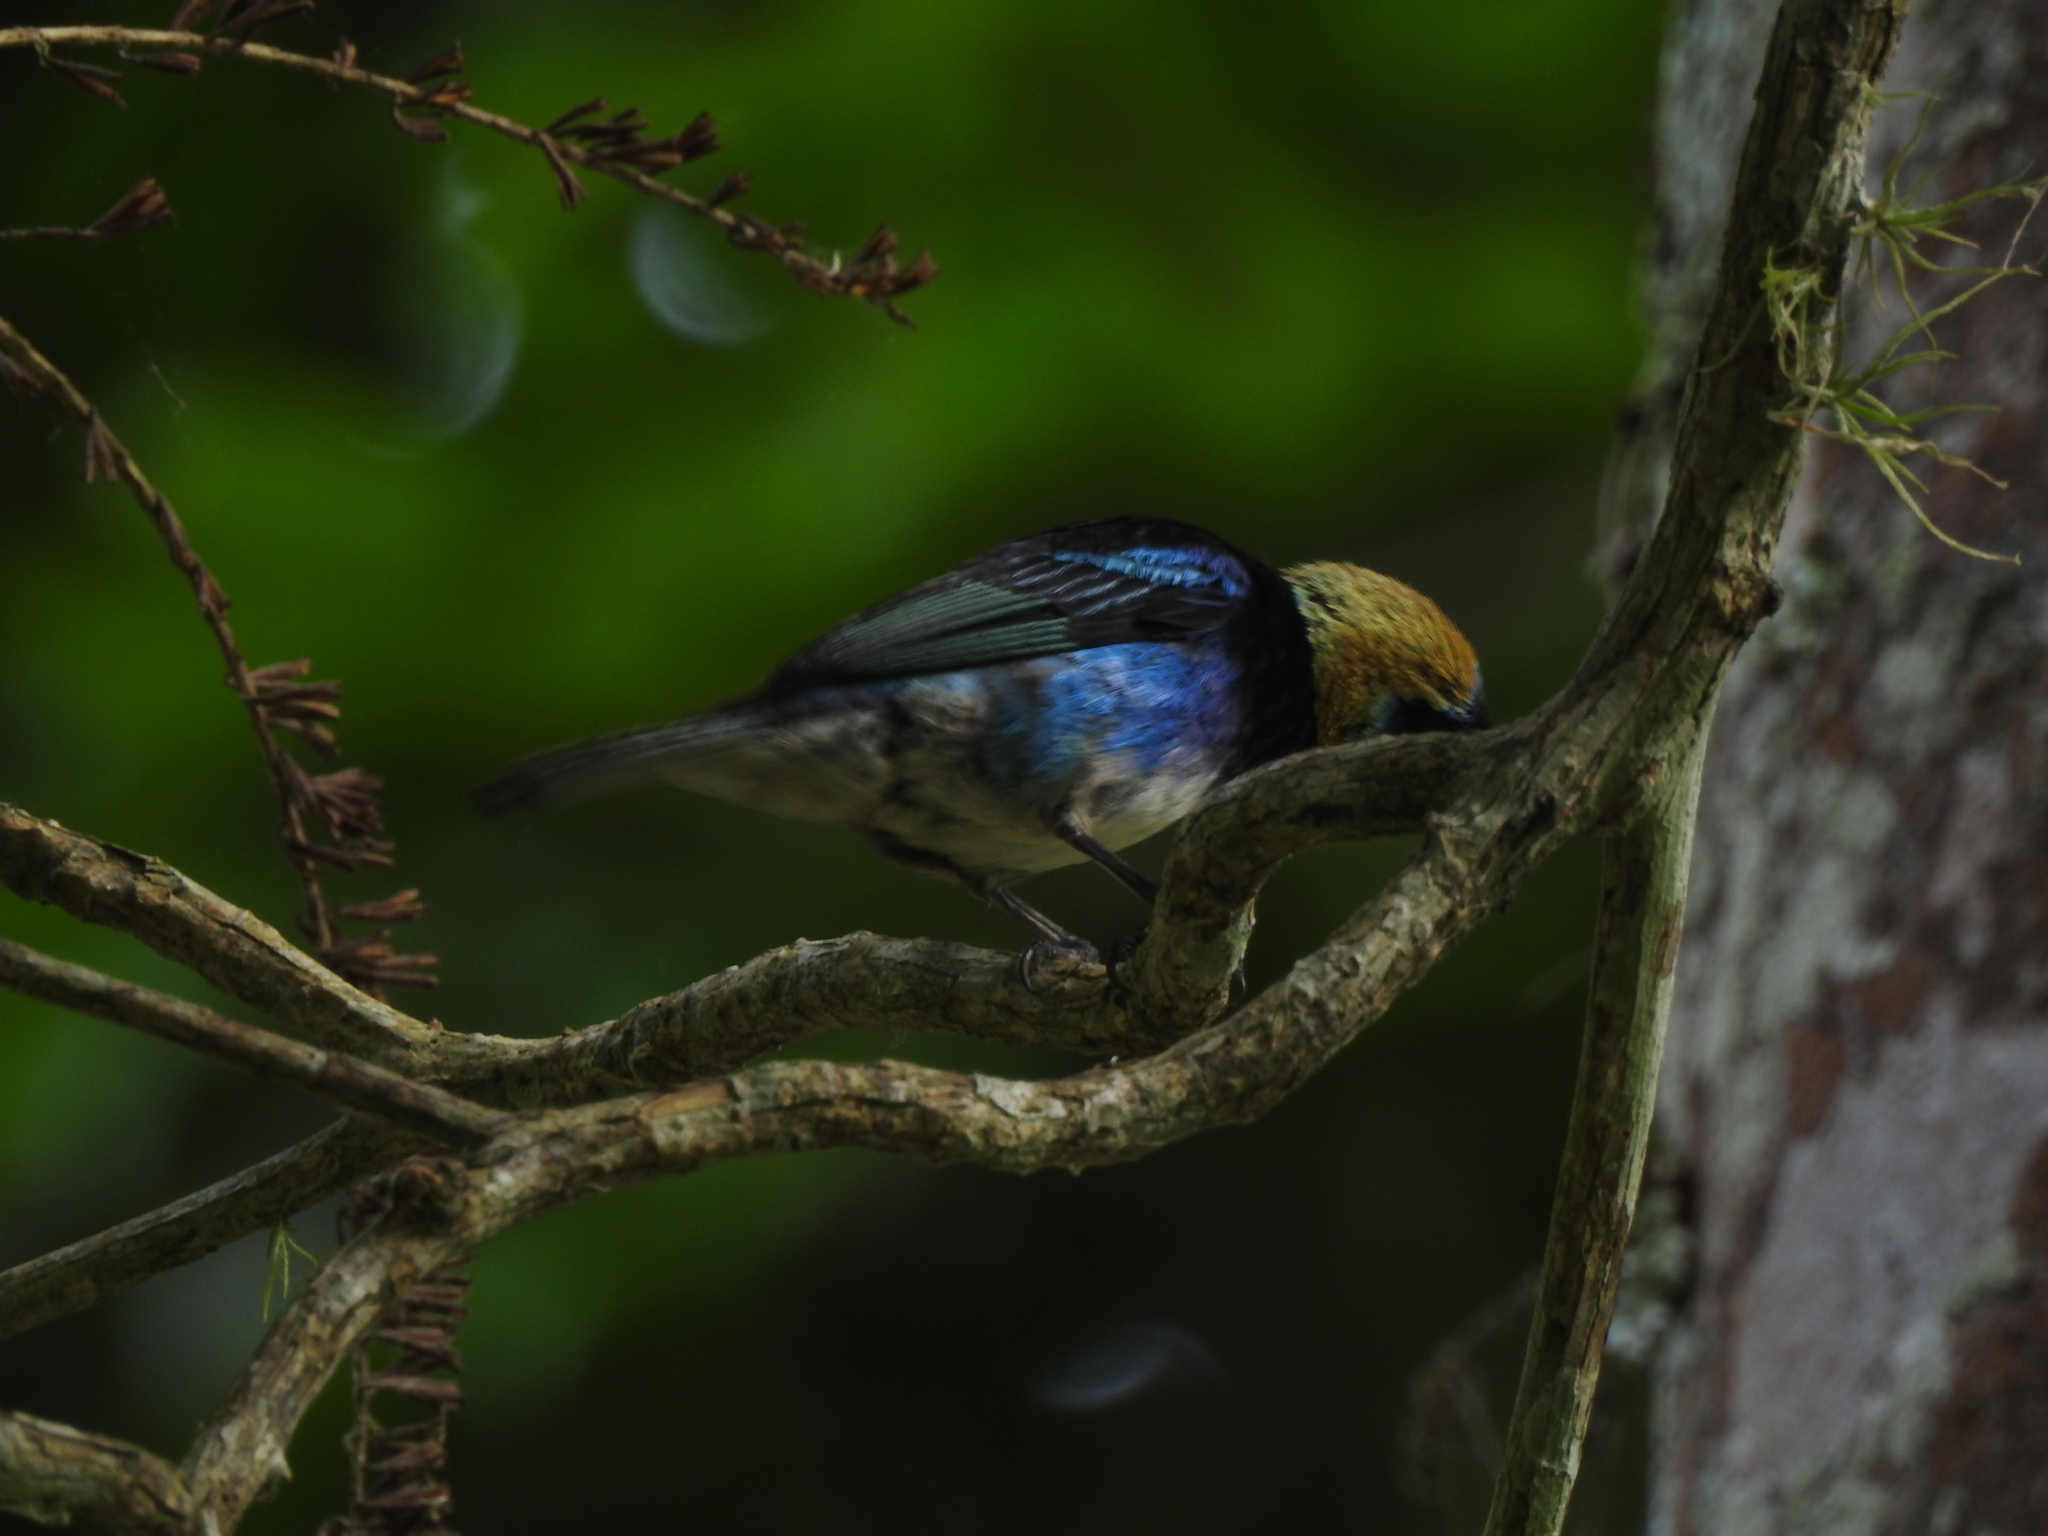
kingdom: Animalia
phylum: Chordata
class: Aves
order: Passeriformes
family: Thraupidae
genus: Stilpnia
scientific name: Stilpnia larvata
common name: Golden-hooded tanager
